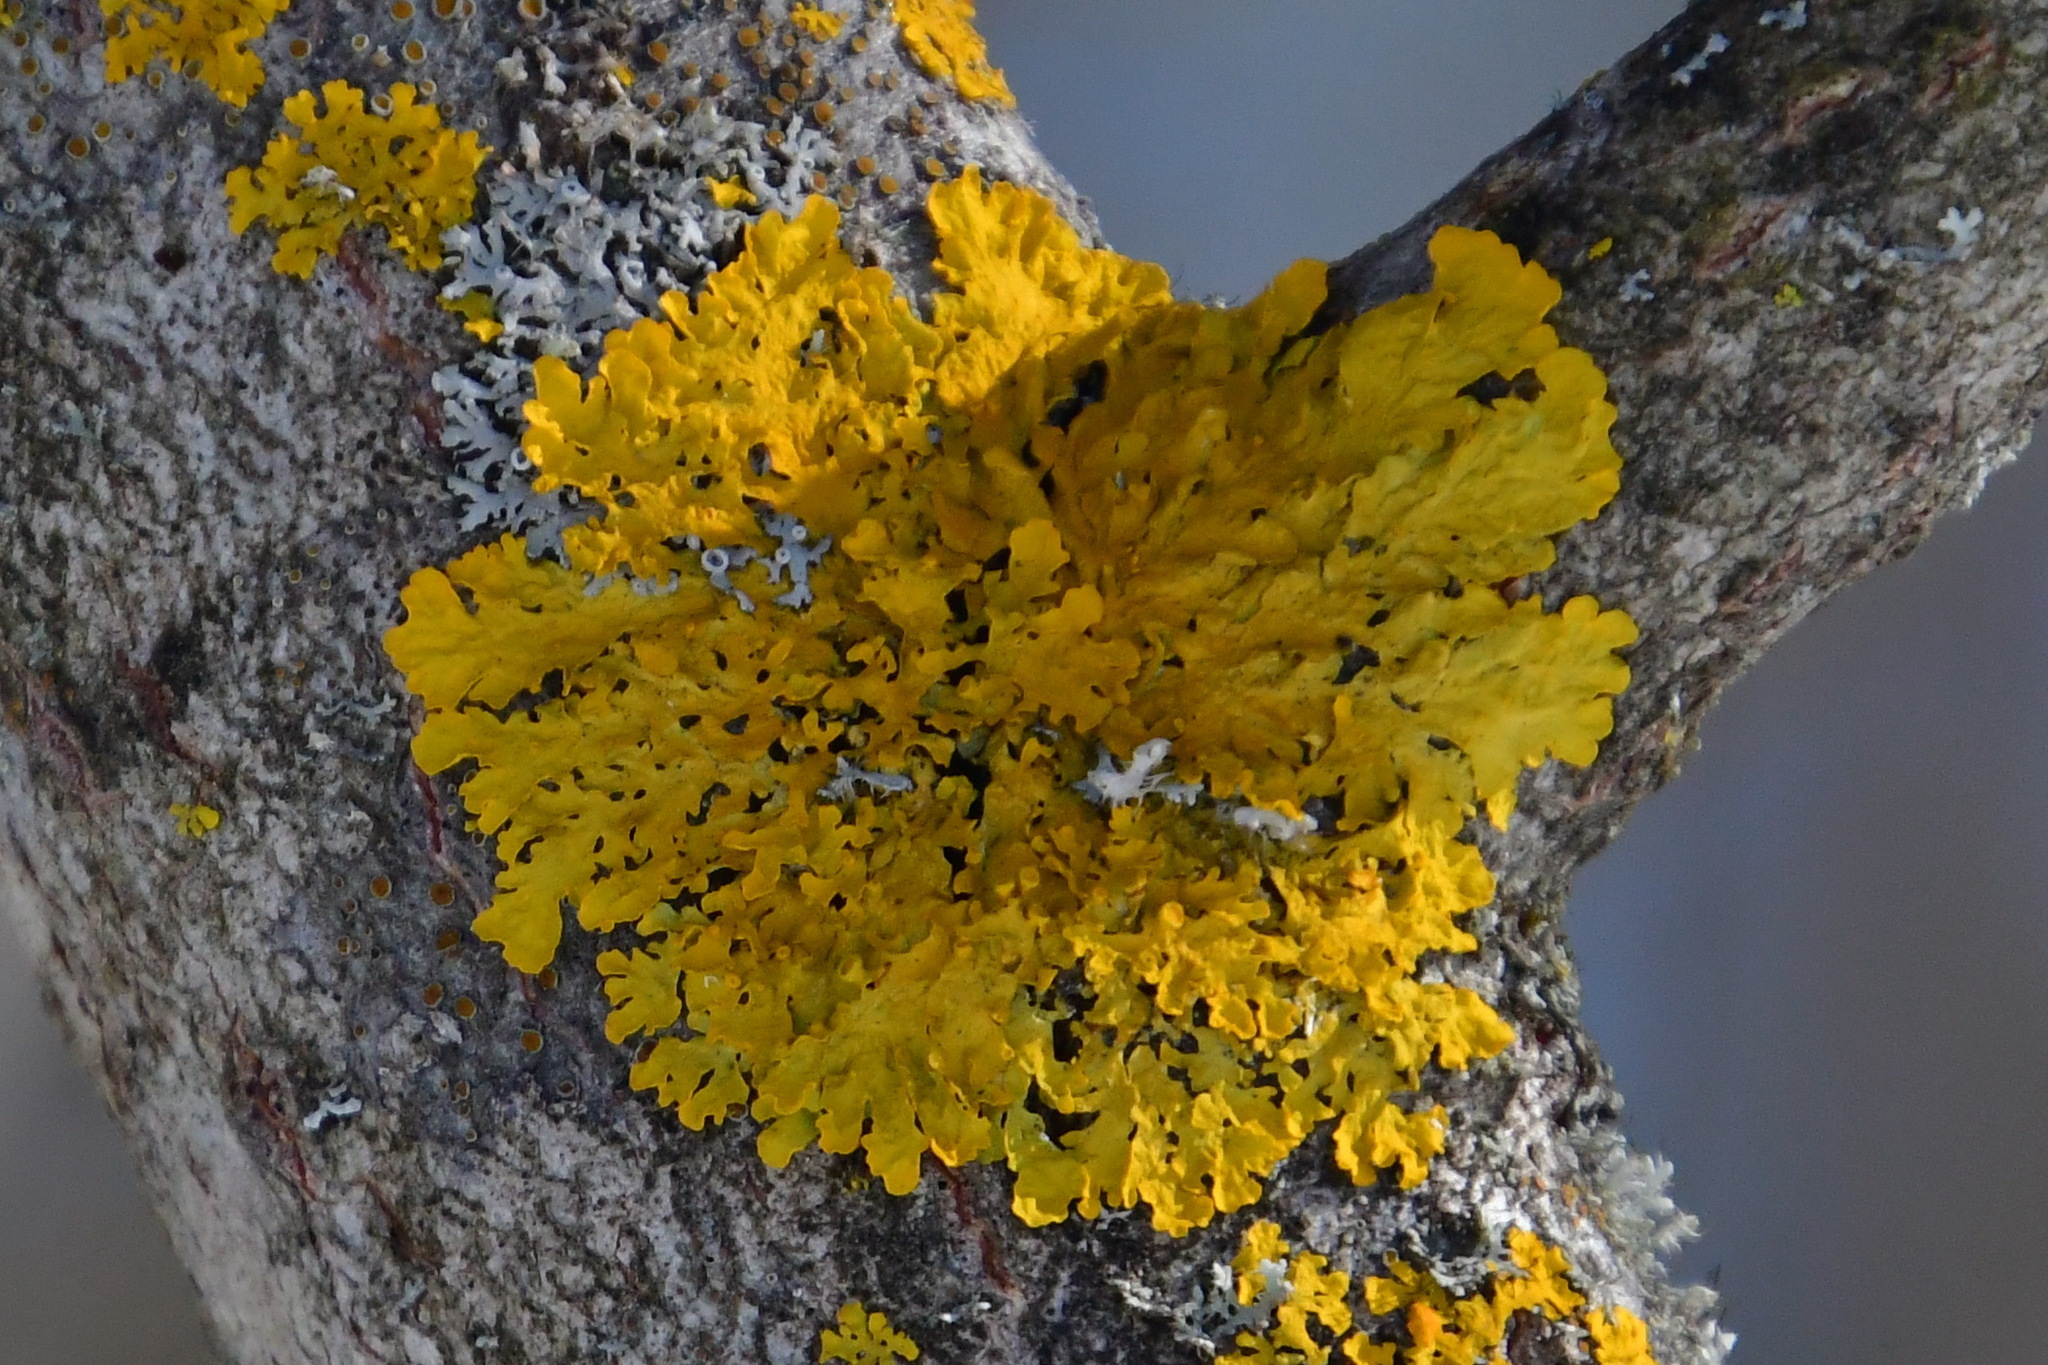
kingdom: Fungi
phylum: Ascomycota
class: Lecanoromycetes
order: Teloschistales
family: Teloschistaceae
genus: Xanthoria
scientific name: Xanthoria parietina
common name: Common orange lichen
